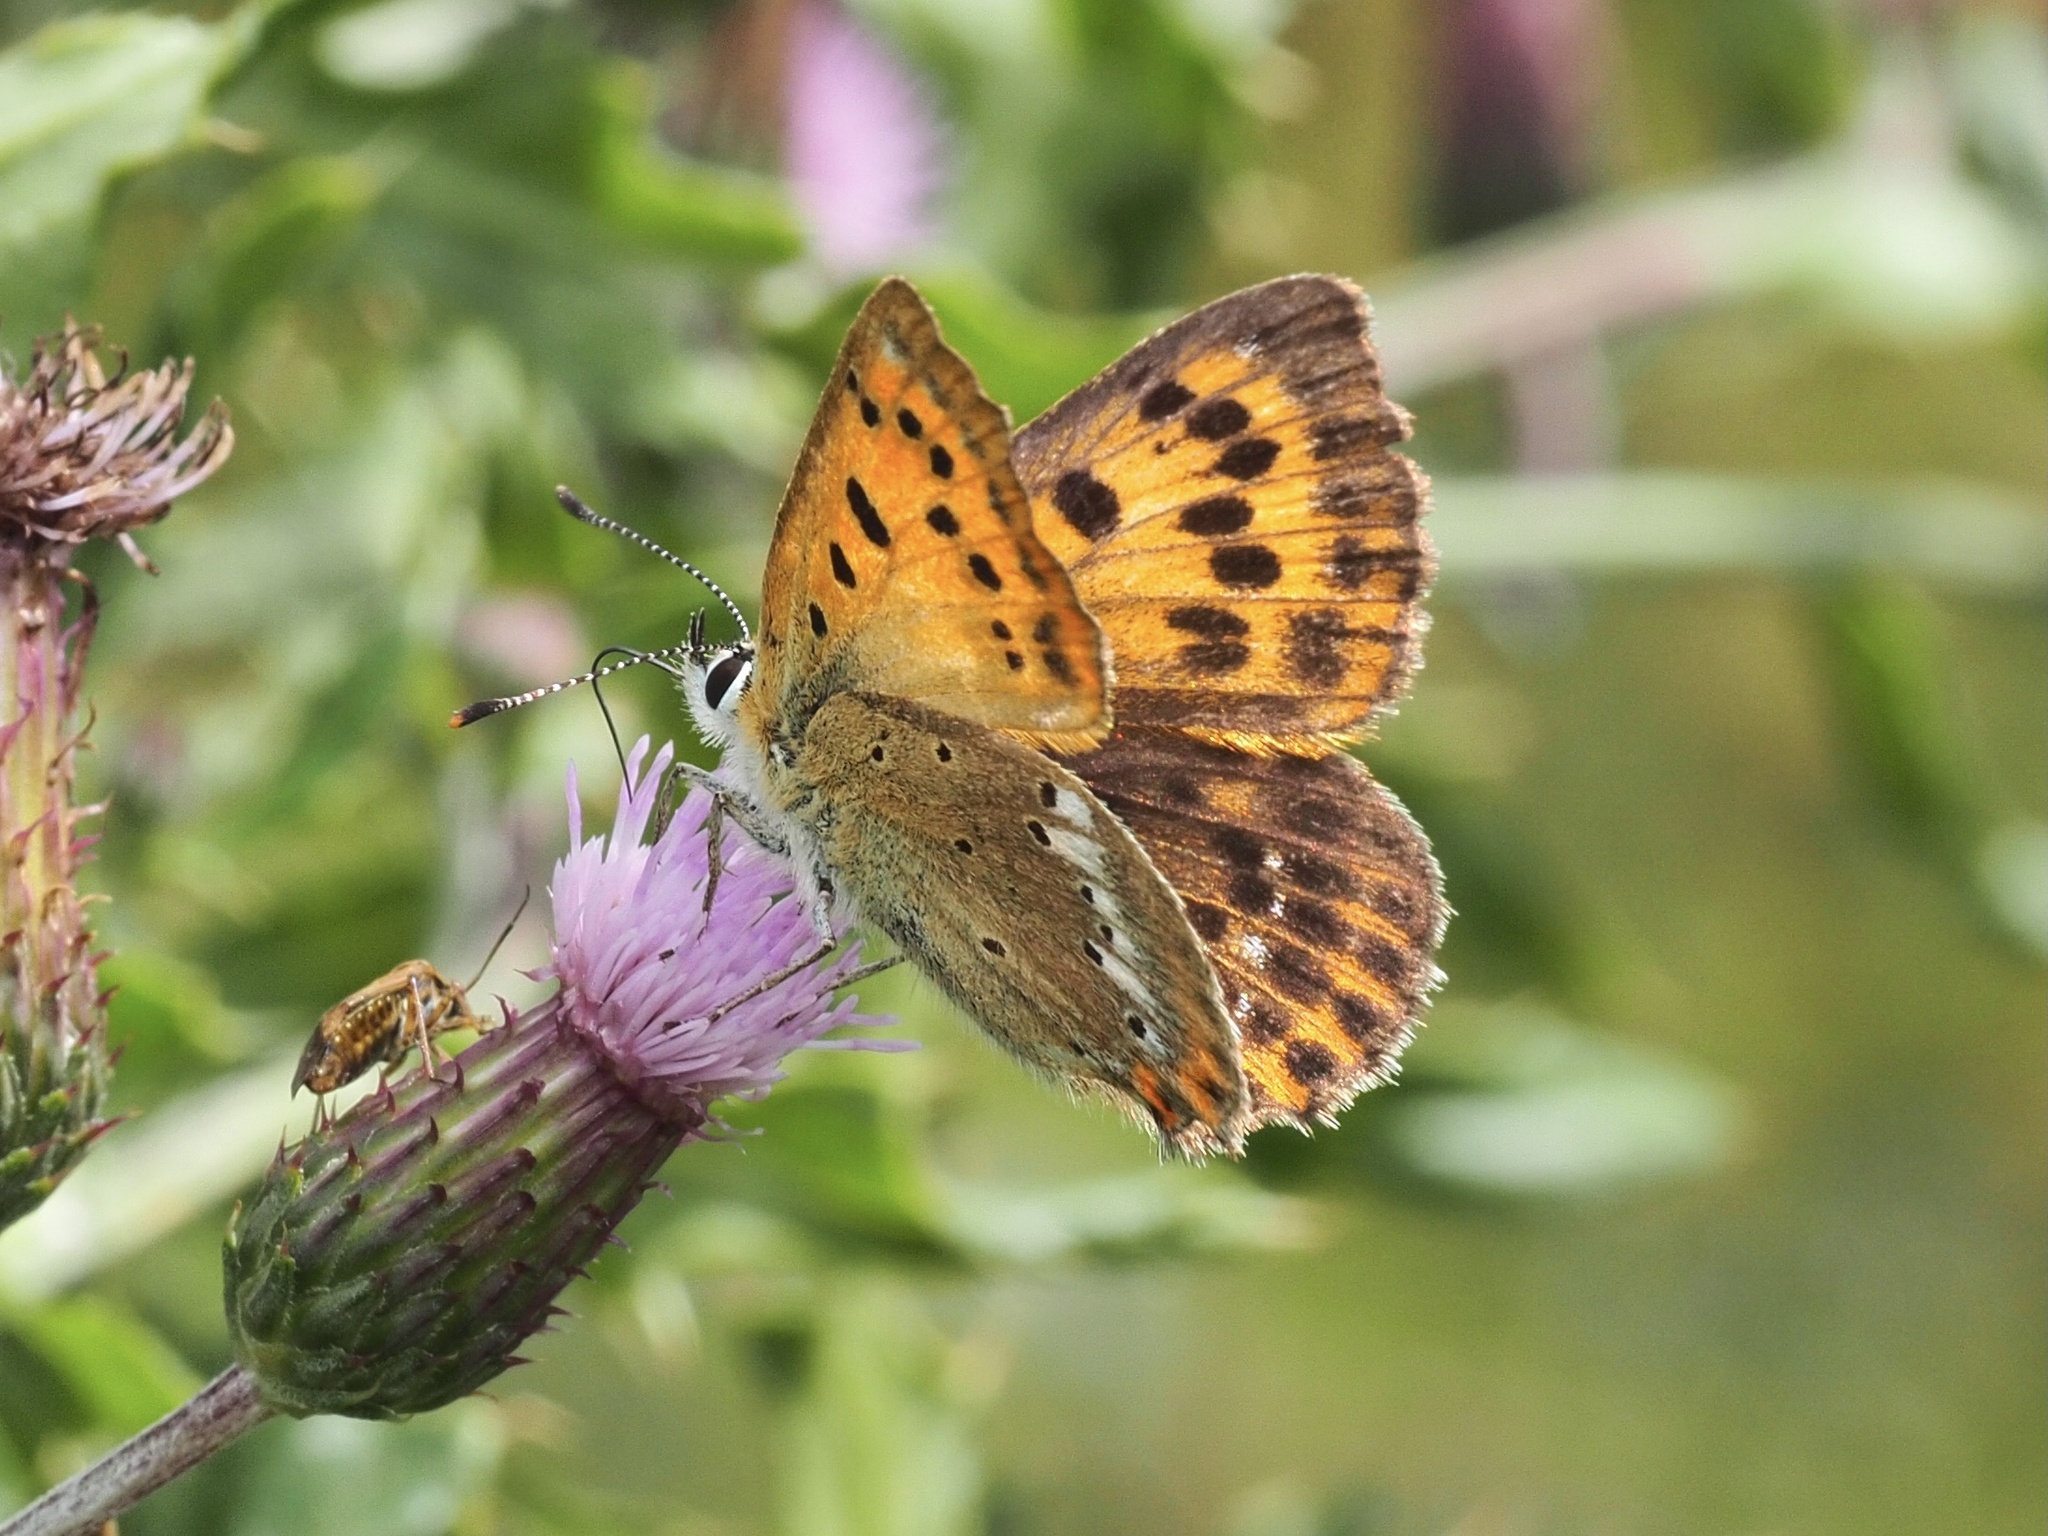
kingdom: Animalia
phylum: Arthropoda
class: Insecta
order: Lepidoptera
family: Lycaenidae
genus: Lycaena
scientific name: Lycaena virgaureae
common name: Scarce copper
